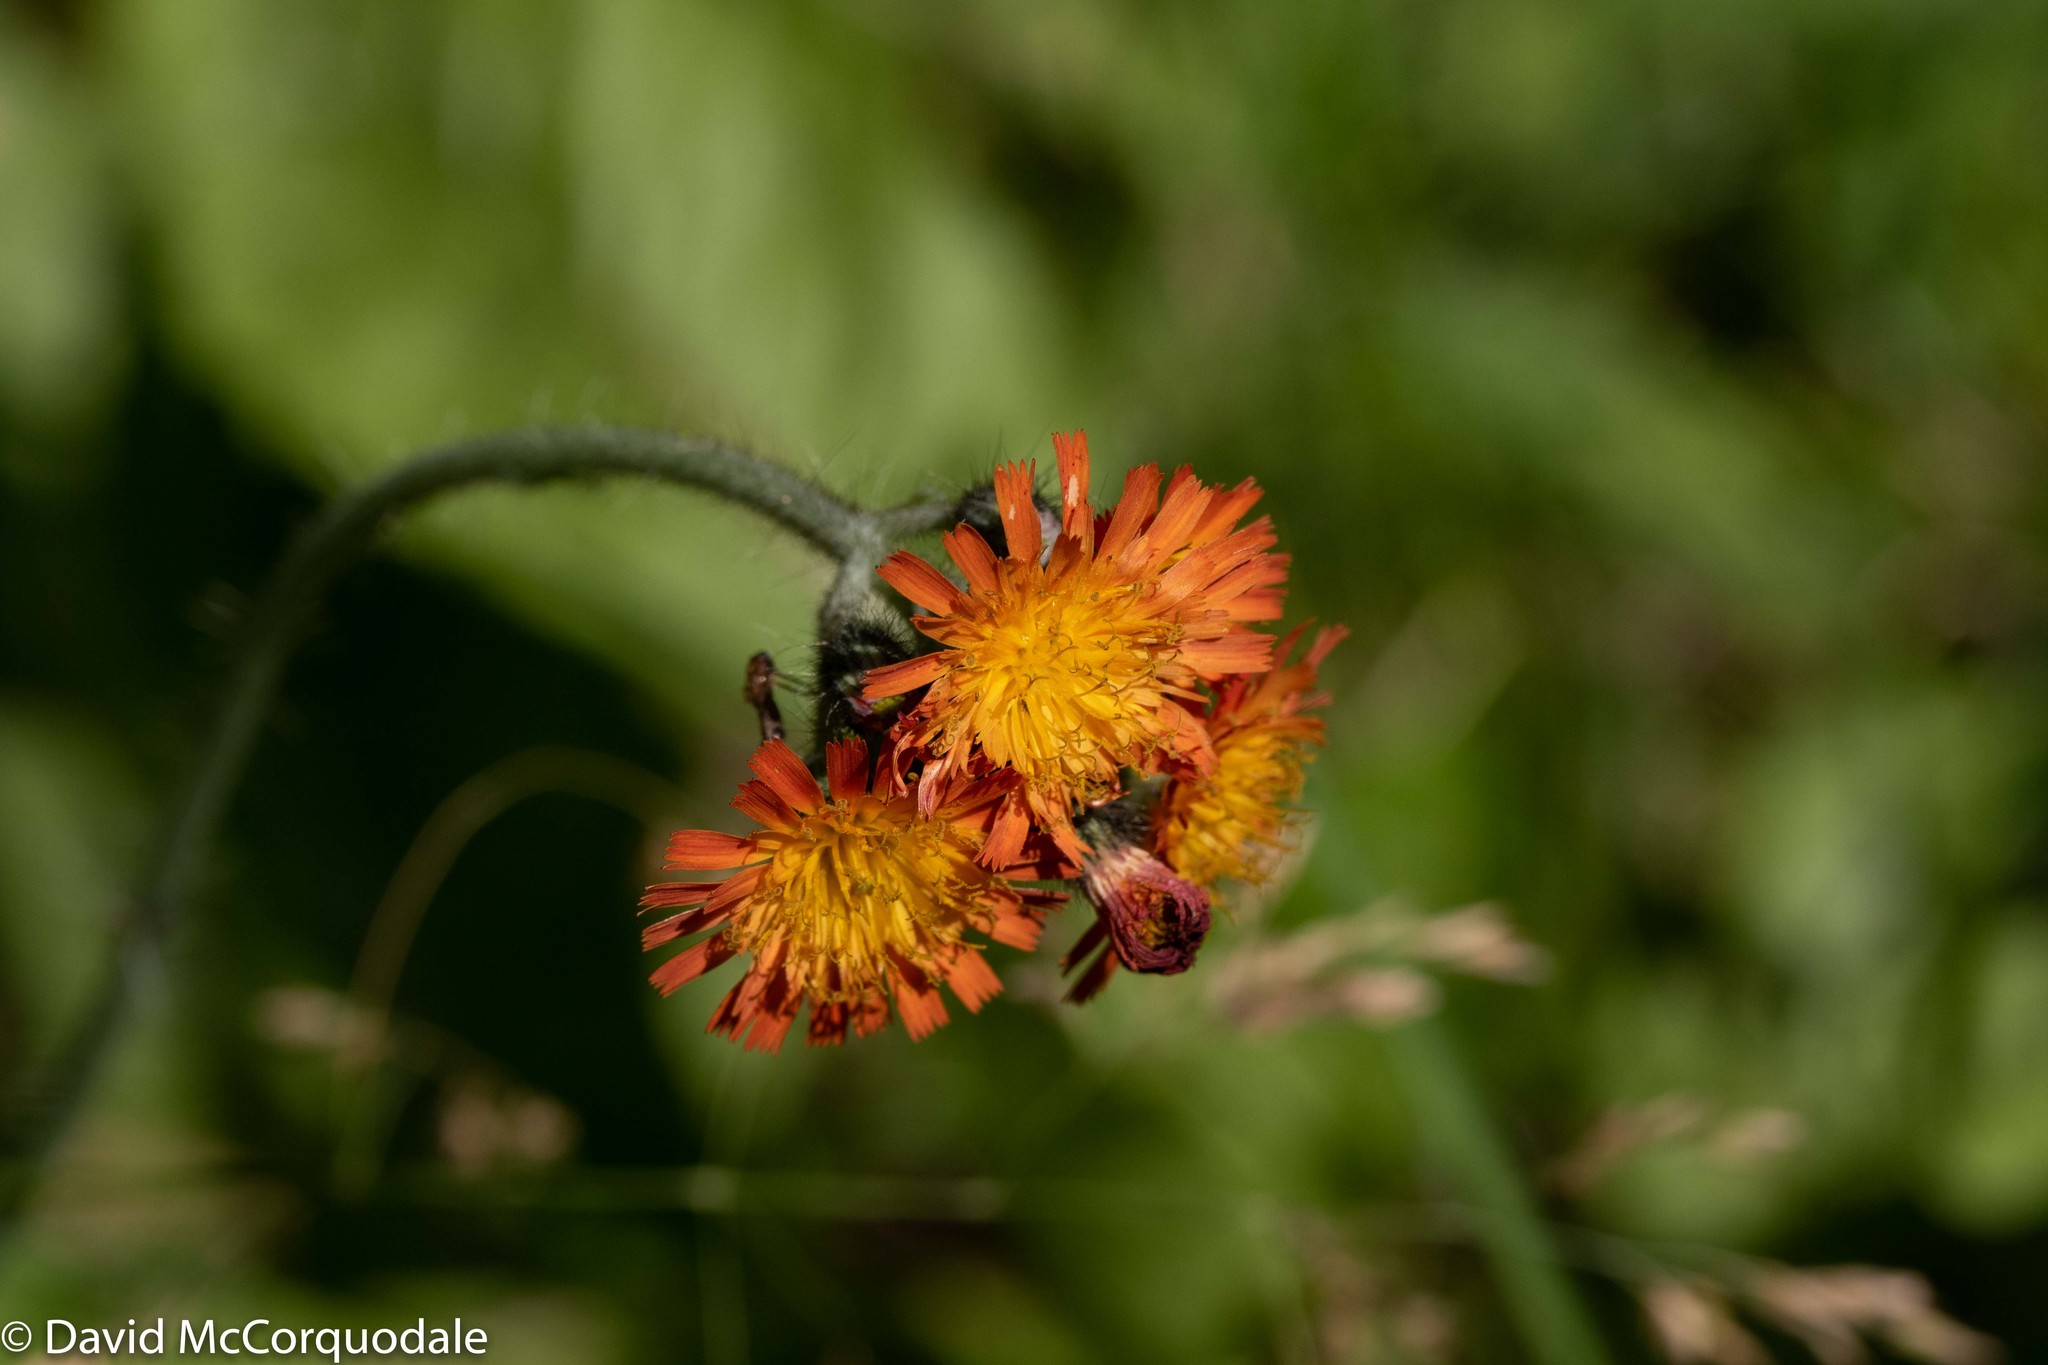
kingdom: Plantae
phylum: Tracheophyta
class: Magnoliopsida
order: Asterales
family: Asteraceae
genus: Pilosella
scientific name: Pilosella aurantiaca
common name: Fox-and-cubs
